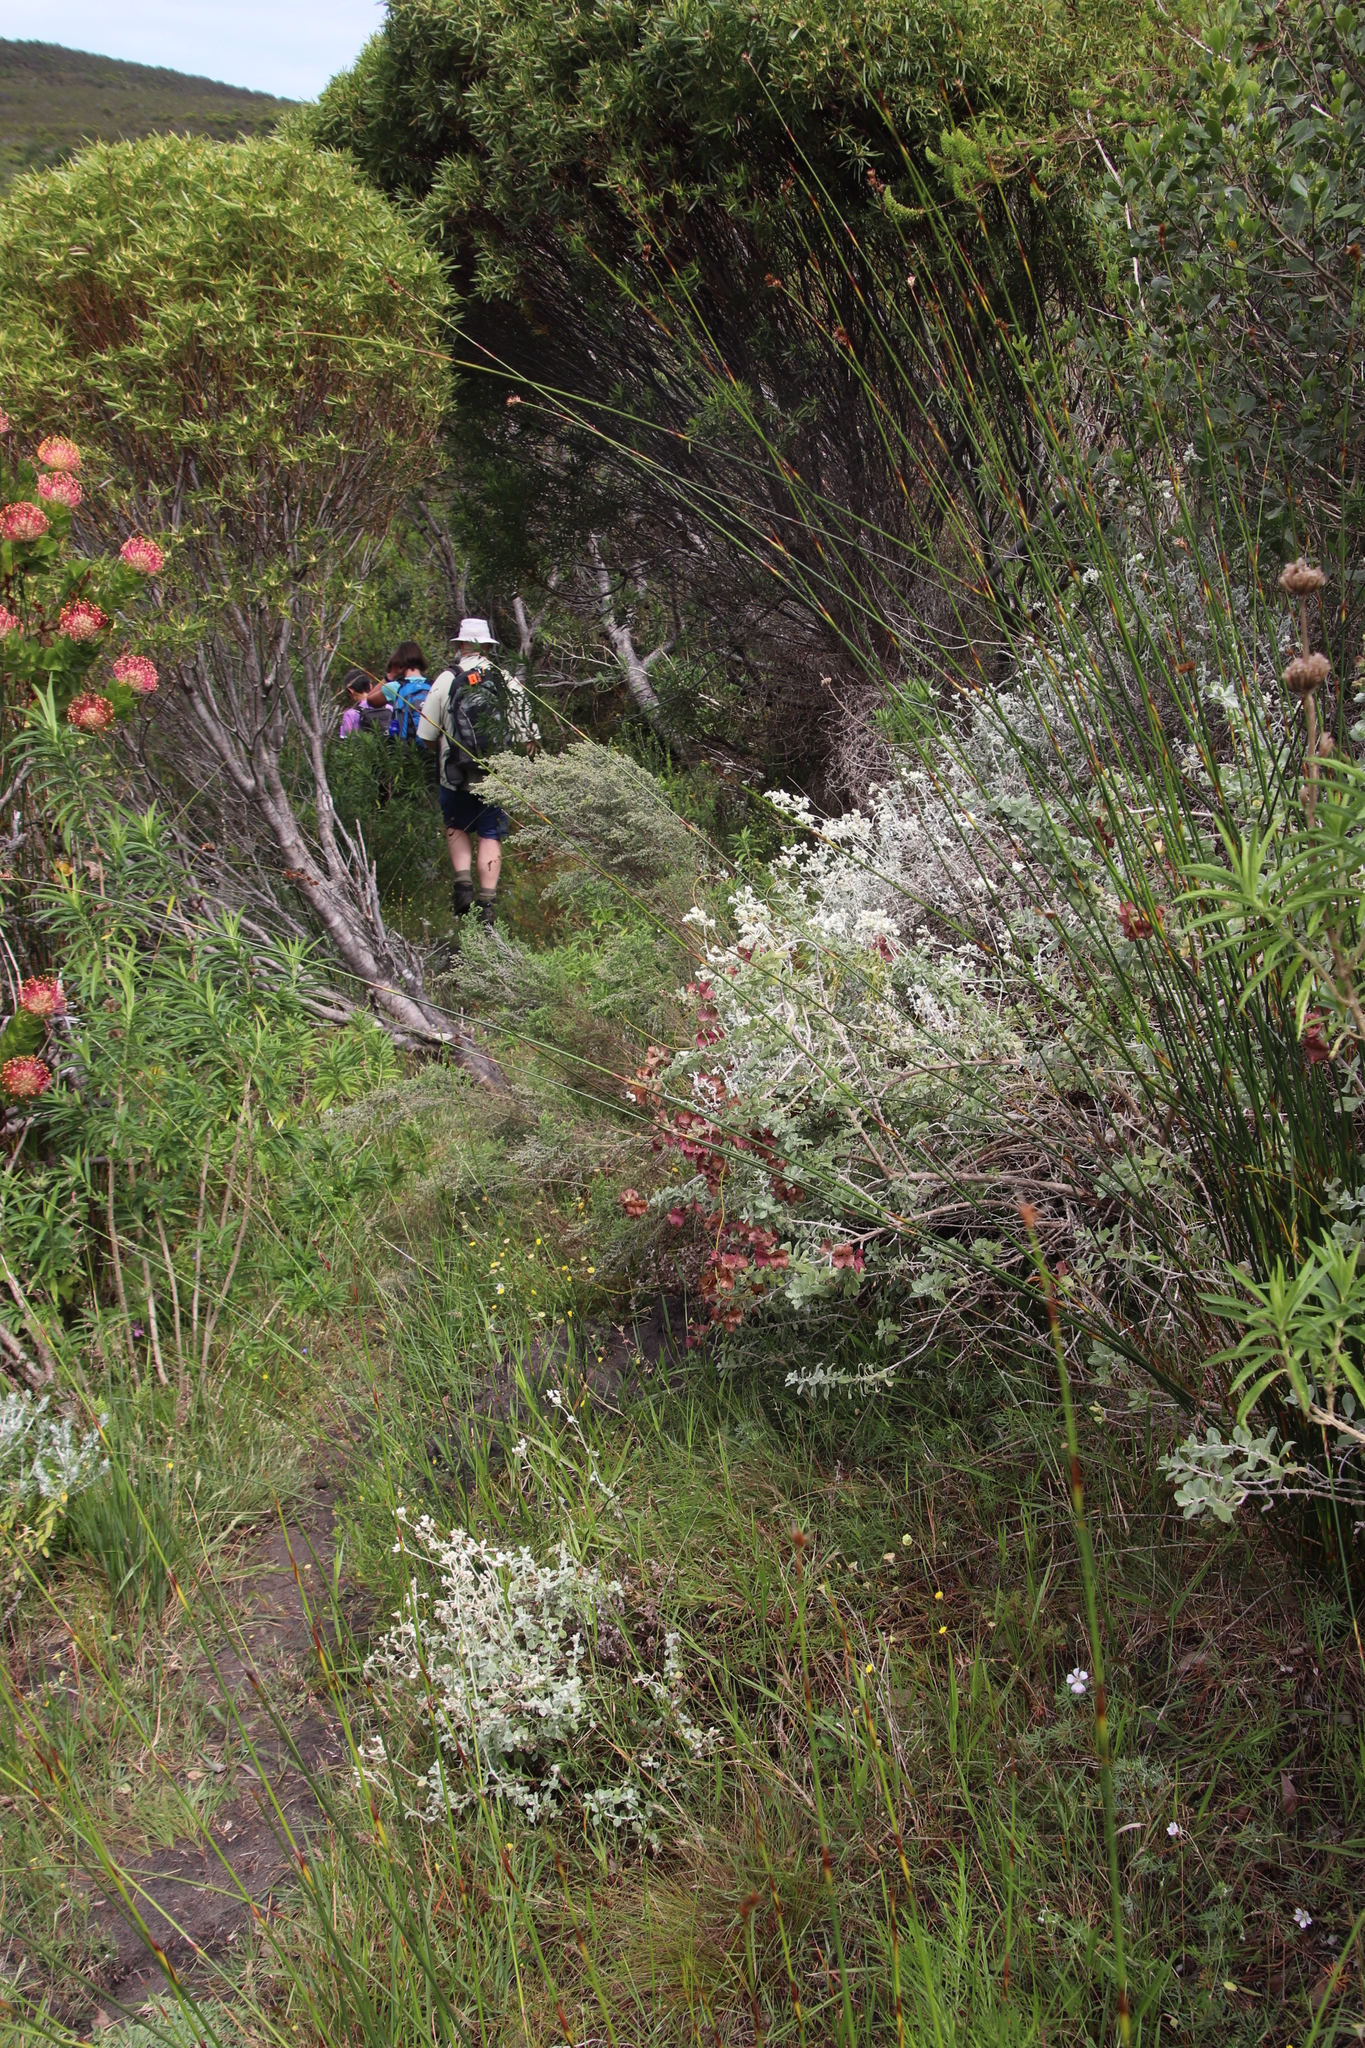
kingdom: Plantae
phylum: Tracheophyta
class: Magnoliopsida
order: Lamiales
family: Lamiaceae
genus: Salvia
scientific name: Salvia aurea
